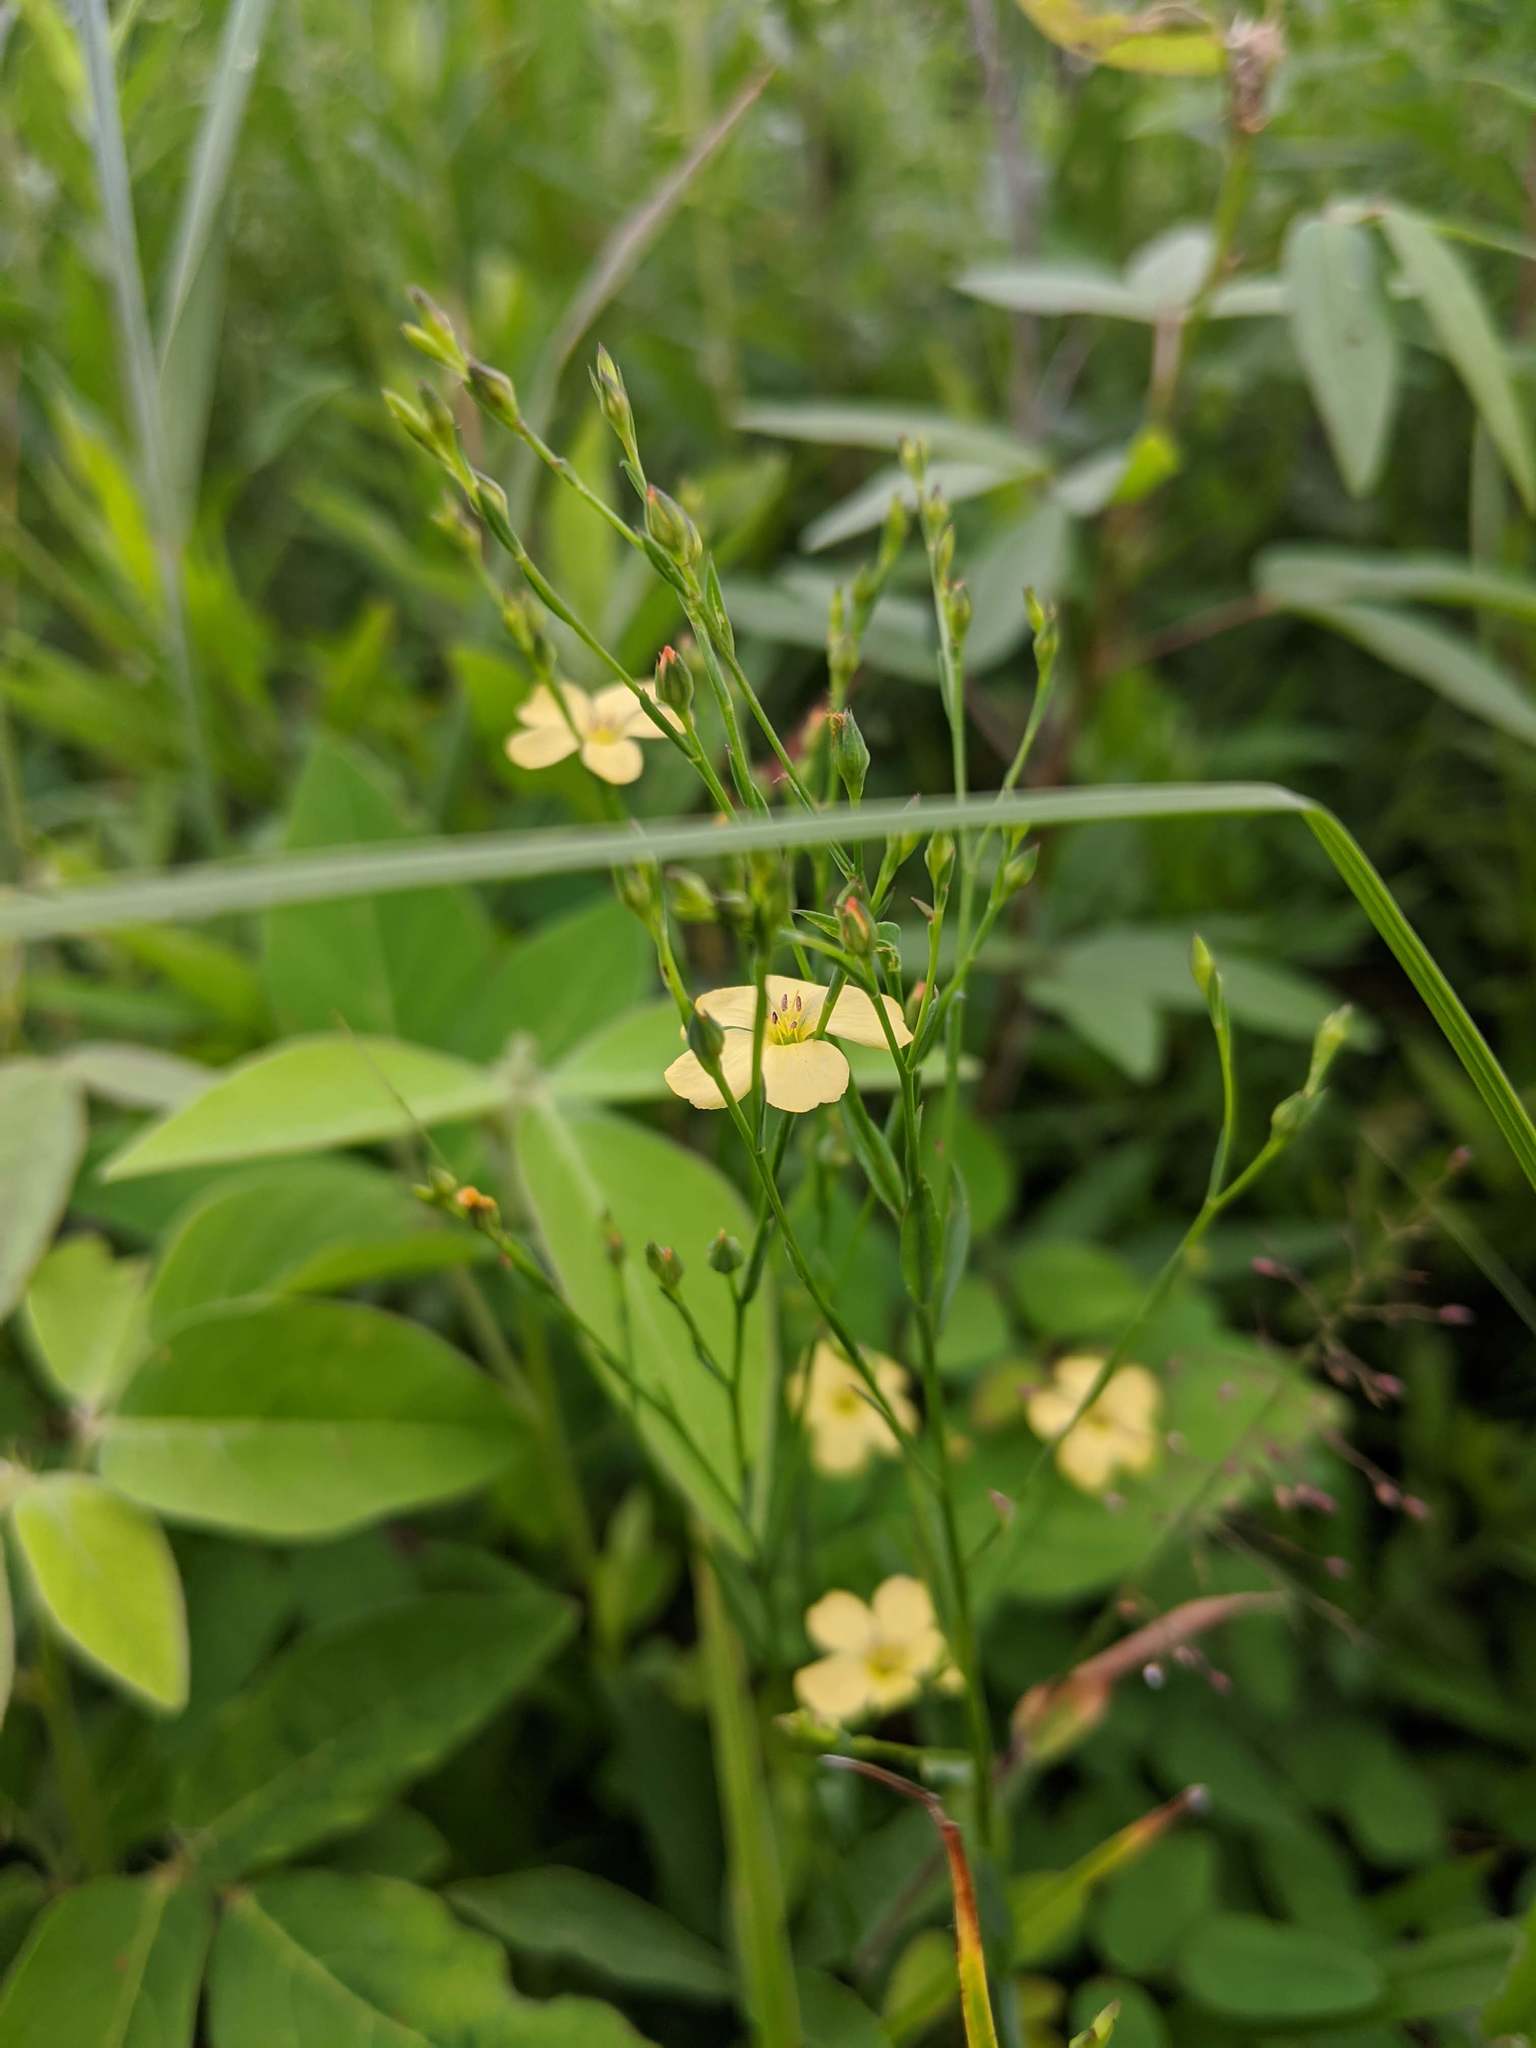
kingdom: Plantae
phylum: Tracheophyta
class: Magnoliopsida
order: Malpighiales
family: Linaceae
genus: Linum
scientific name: Linum sulcatum
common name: Grooved flax
